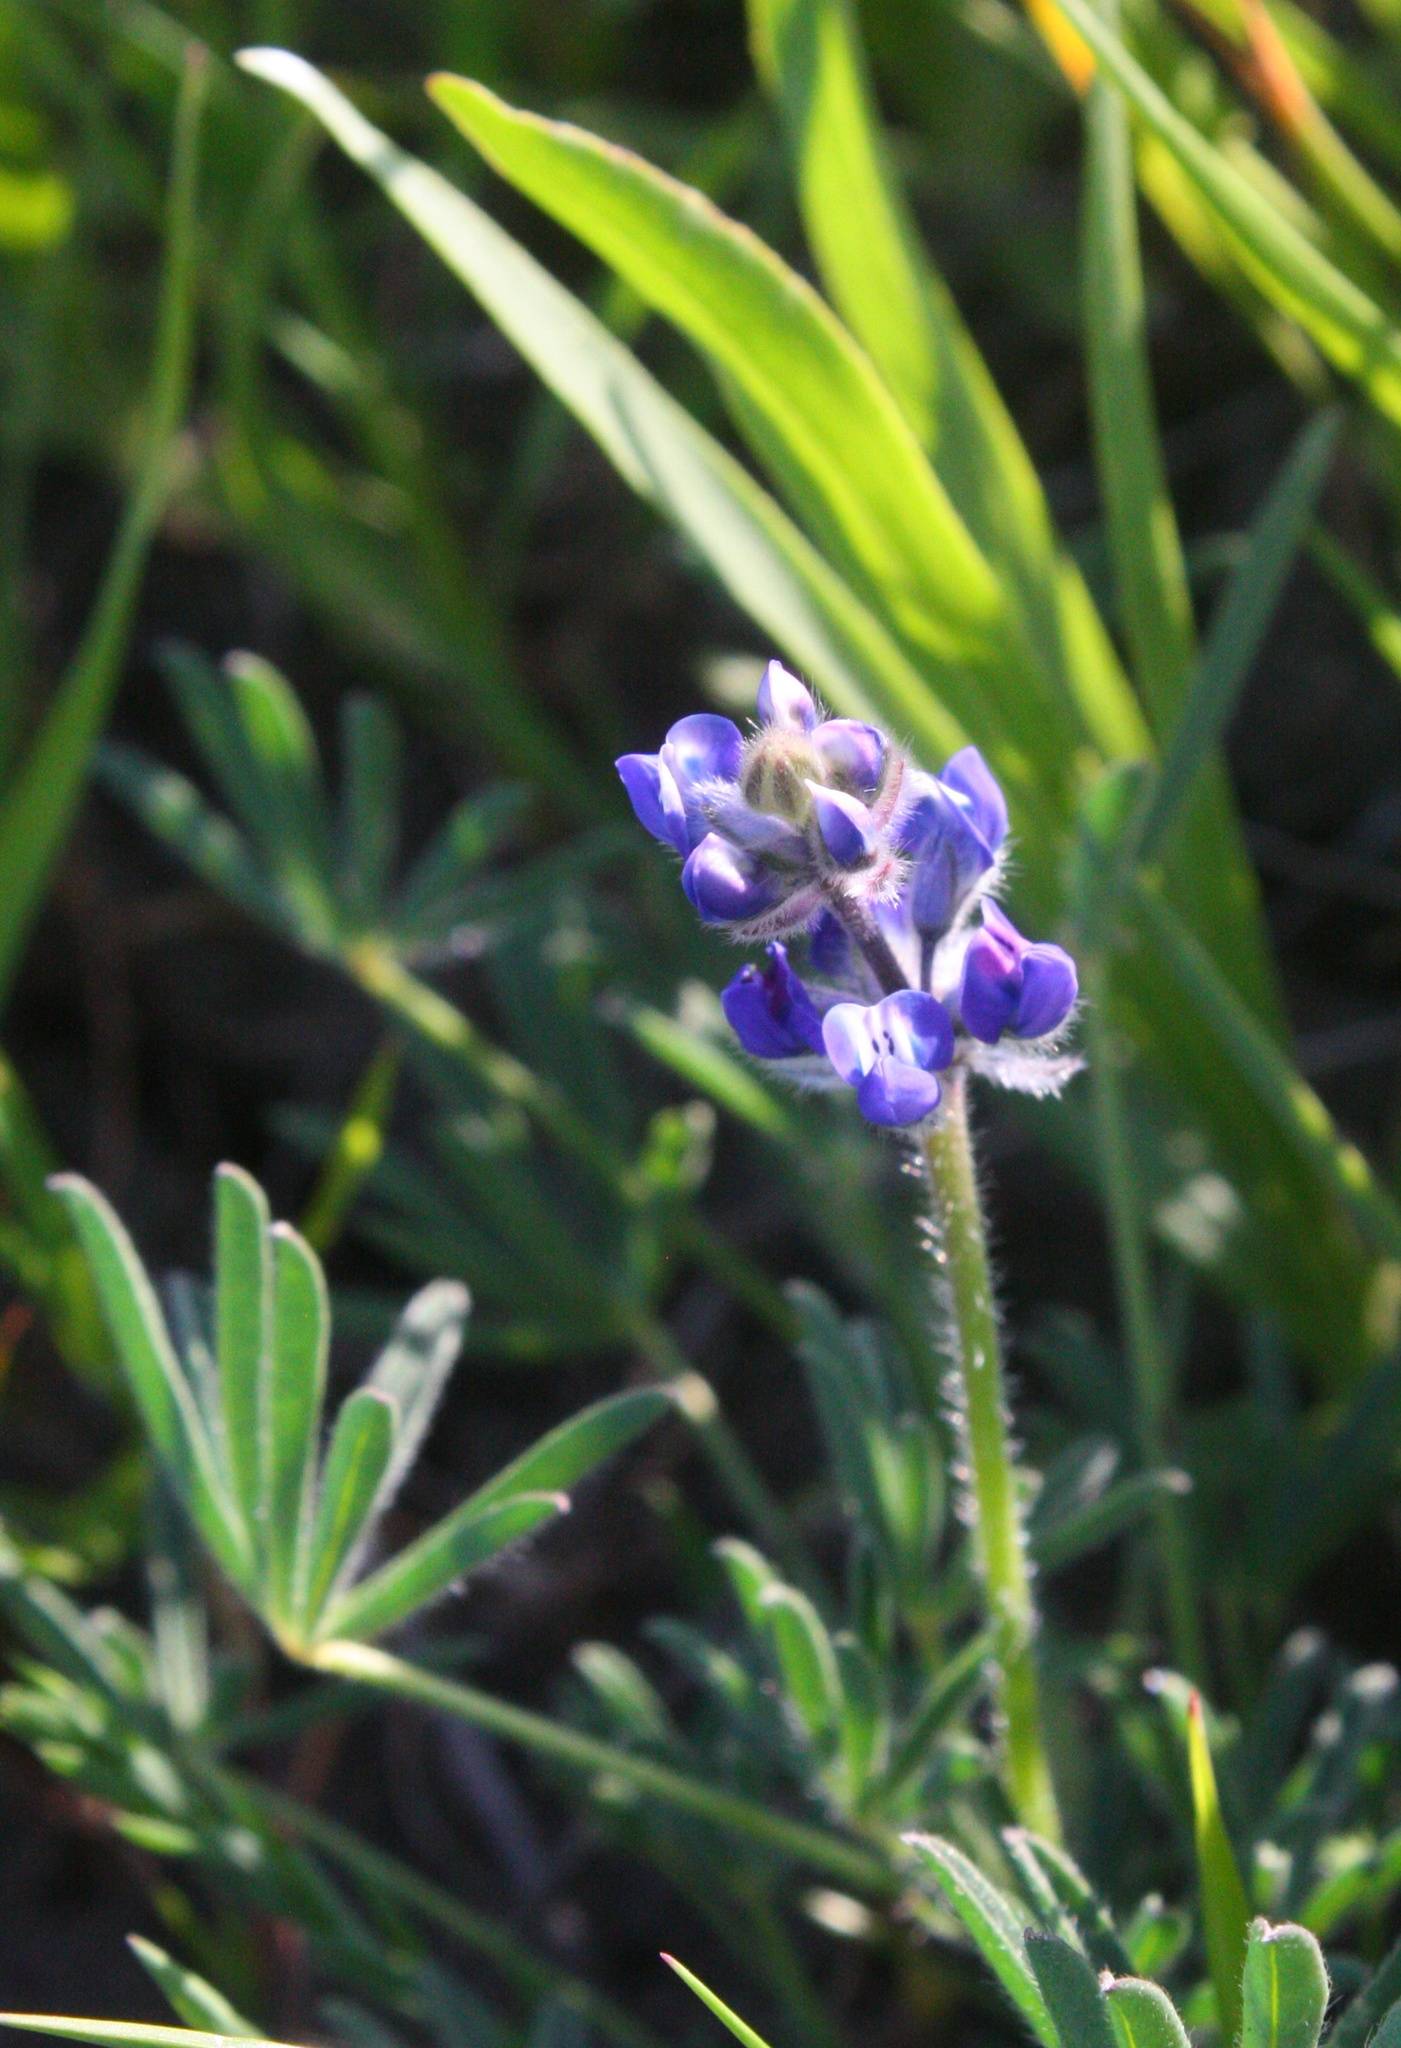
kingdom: Plantae
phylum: Tracheophyta
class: Magnoliopsida
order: Fabales
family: Fabaceae
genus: Lupinus
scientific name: Lupinus bicolor
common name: Miniature lupine
